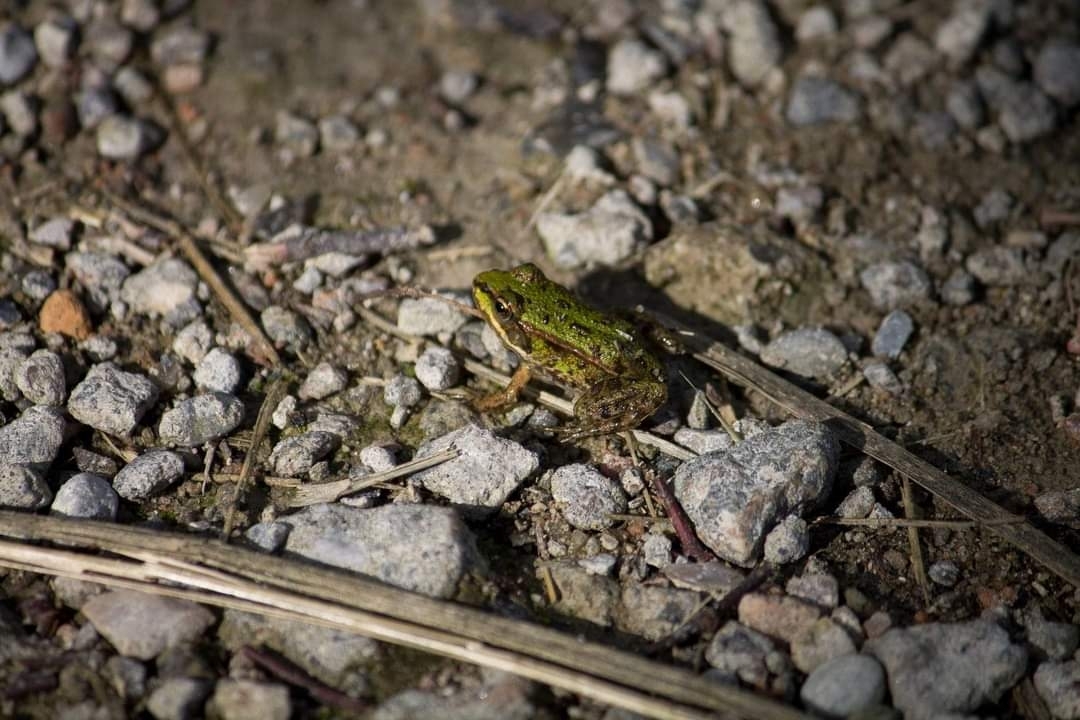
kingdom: Animalia
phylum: Chordata
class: Amphibia
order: Anura
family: Ranidae
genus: Pelophylax
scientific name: Pelophylax lessonae
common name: Pool frog
